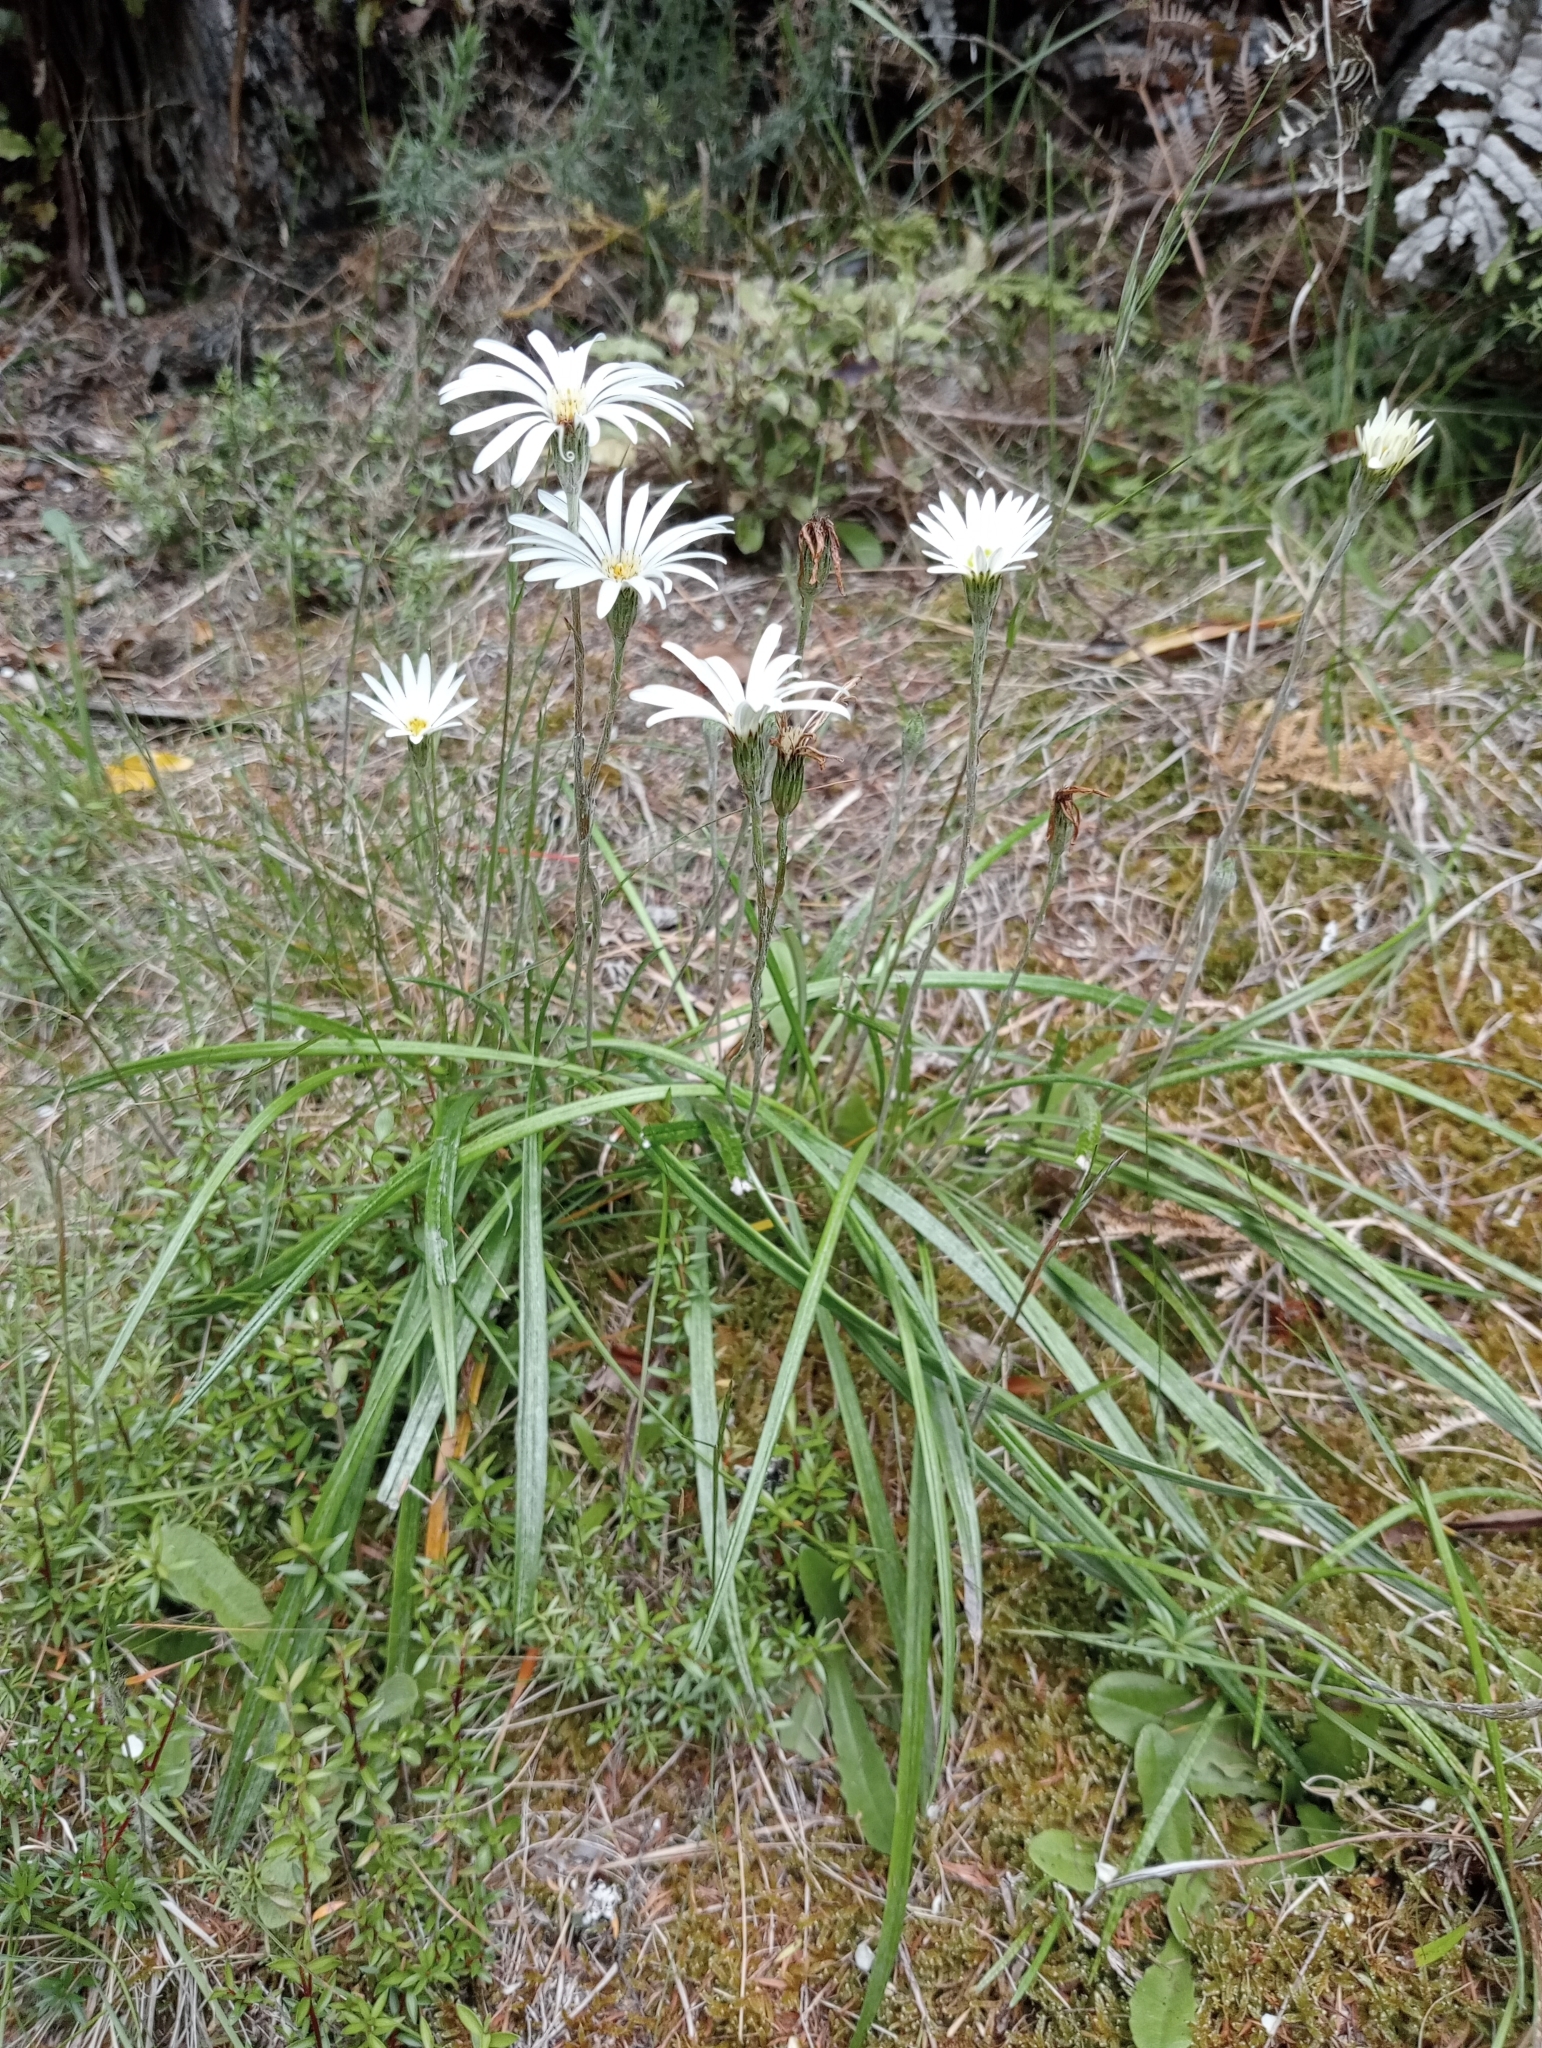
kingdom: Plantae
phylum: Tracheophyta
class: Magnoliopsida
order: Asterales
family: Asteraceae
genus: Celmisia
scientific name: Celmisia gracilenta
